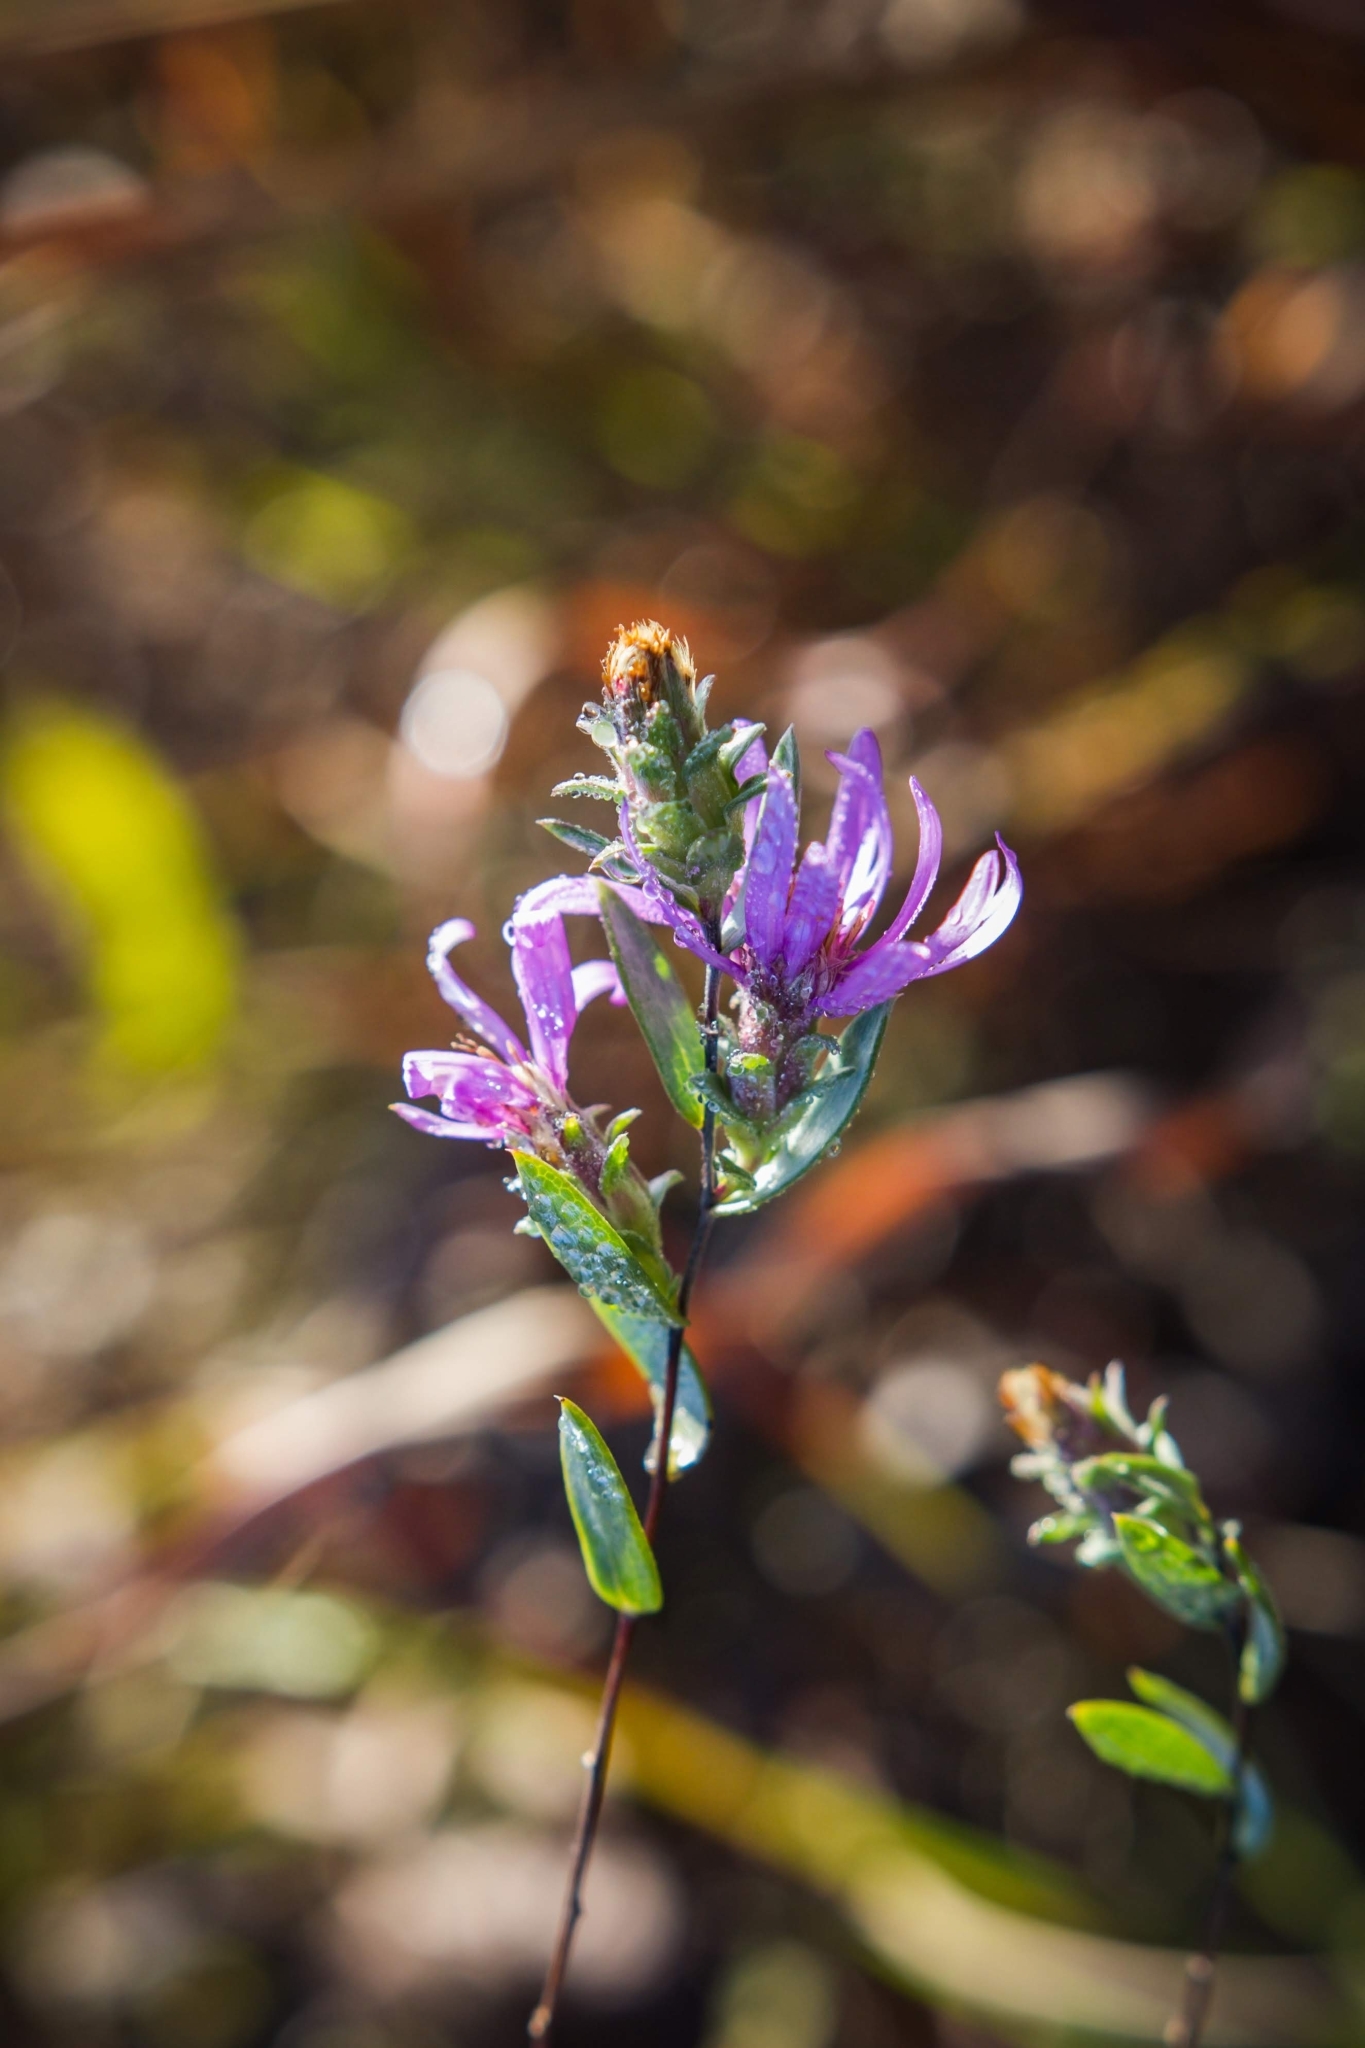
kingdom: Plantae
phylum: Tracheophyta
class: Magnoliopsida
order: Asterales
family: Asteraceae
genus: Symphyotrichum
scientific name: Symphyotrichum sericeum
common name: Silky aster
